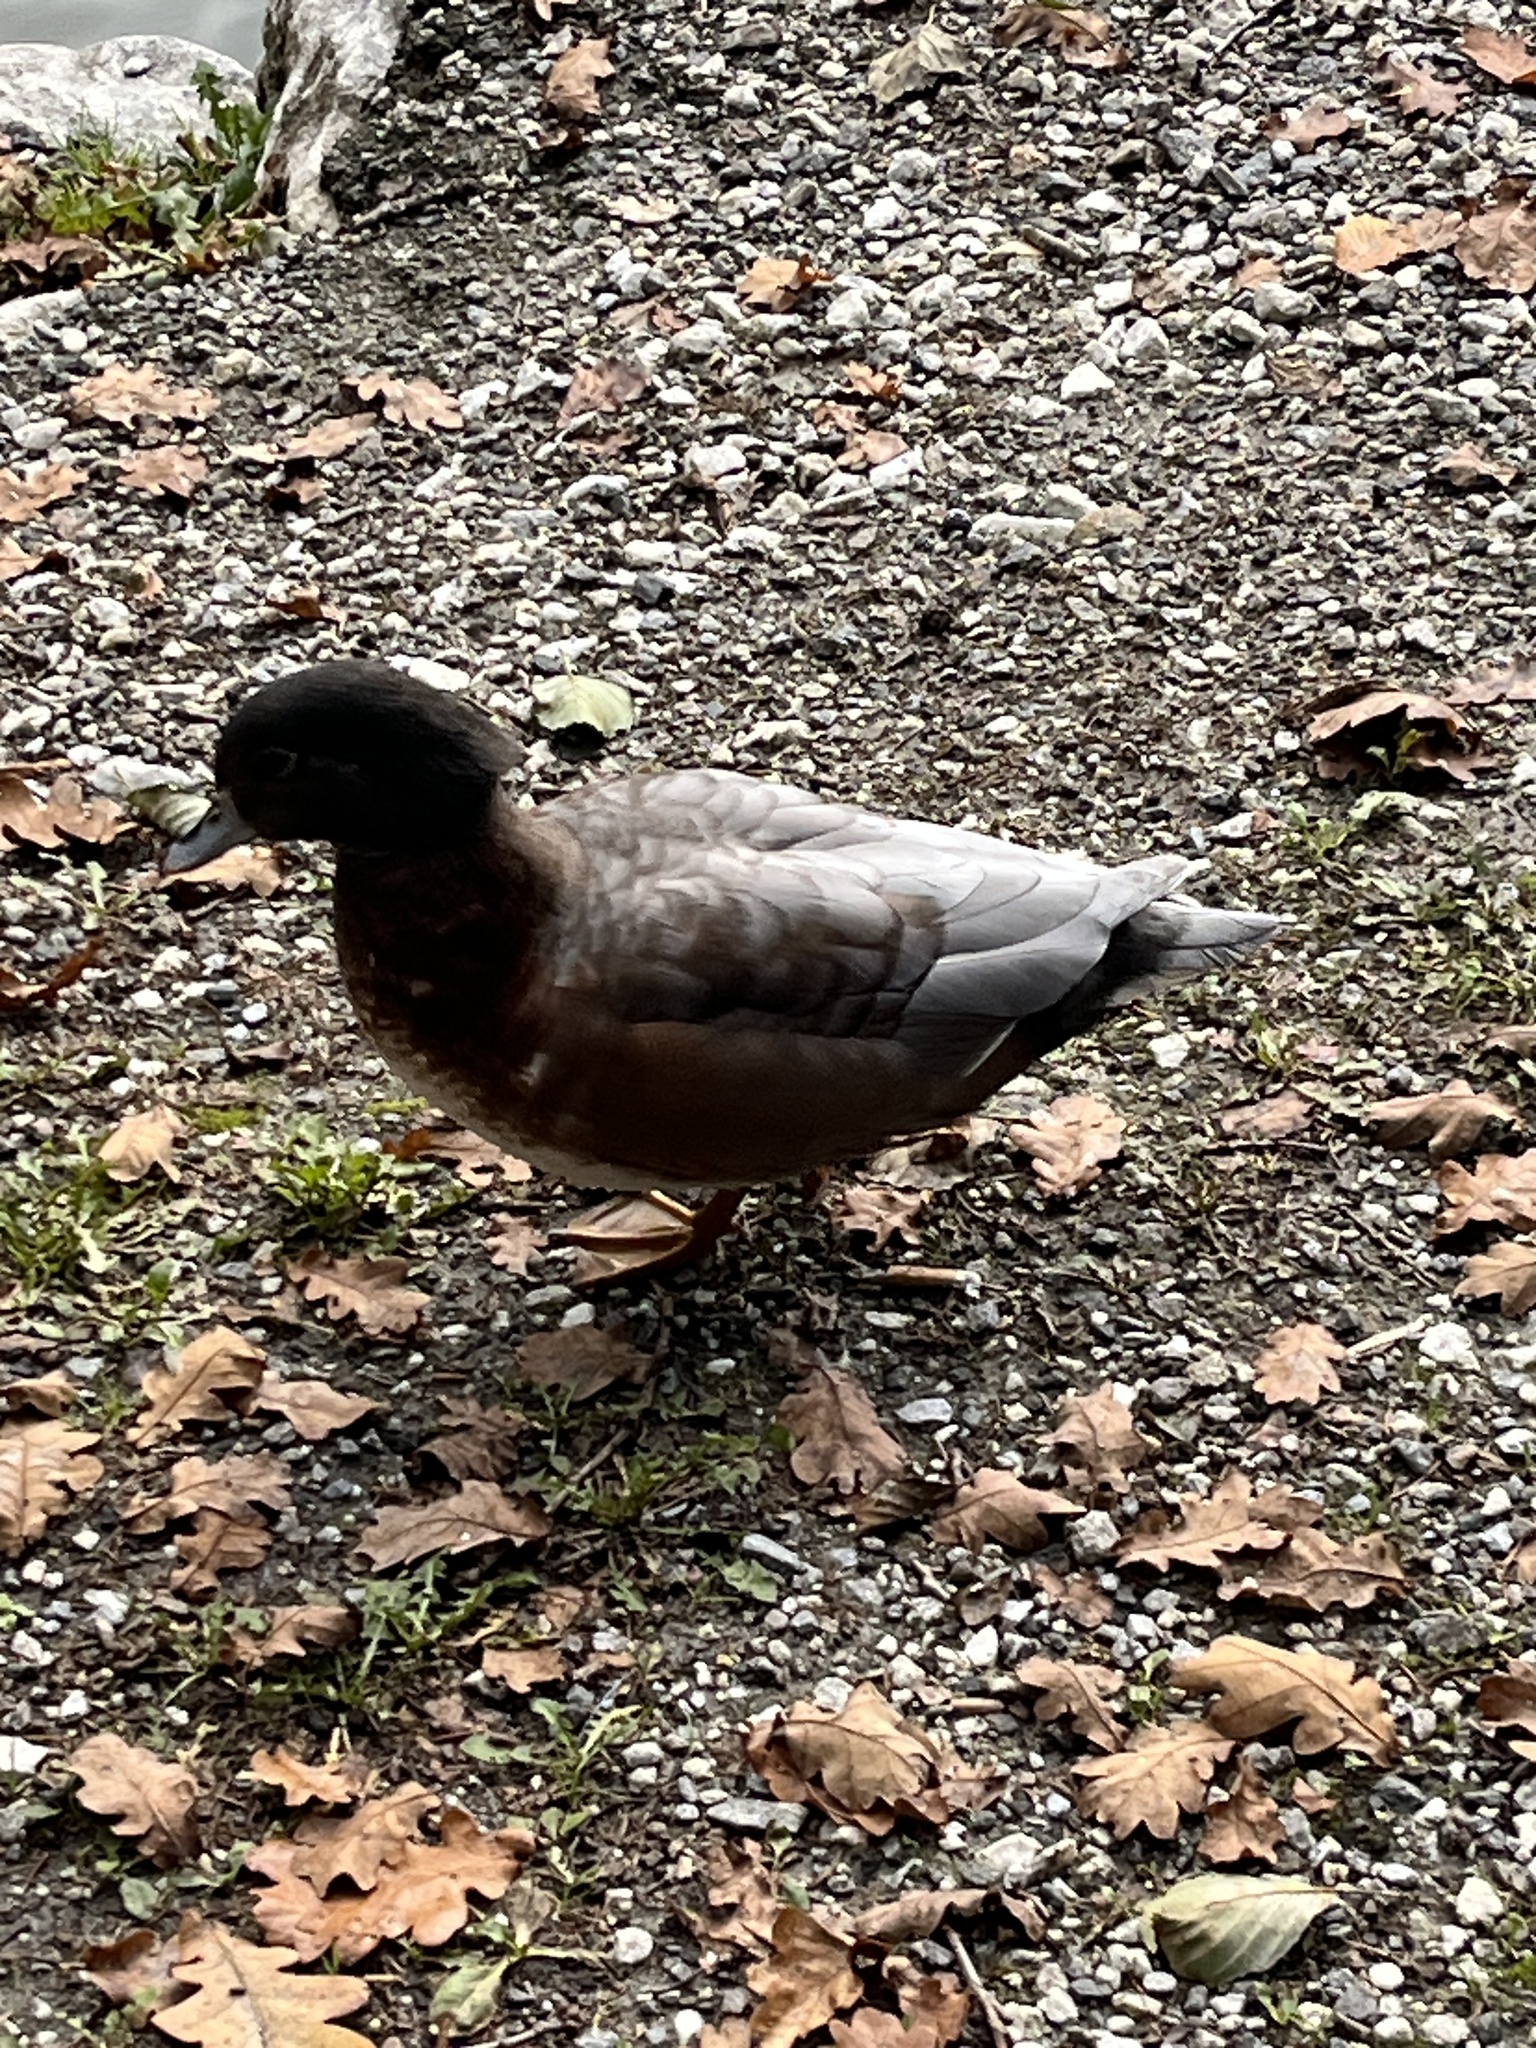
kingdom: Animalia
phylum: Chordata
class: Aves
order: Anseriformes
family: Anatidae
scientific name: Anatidae
